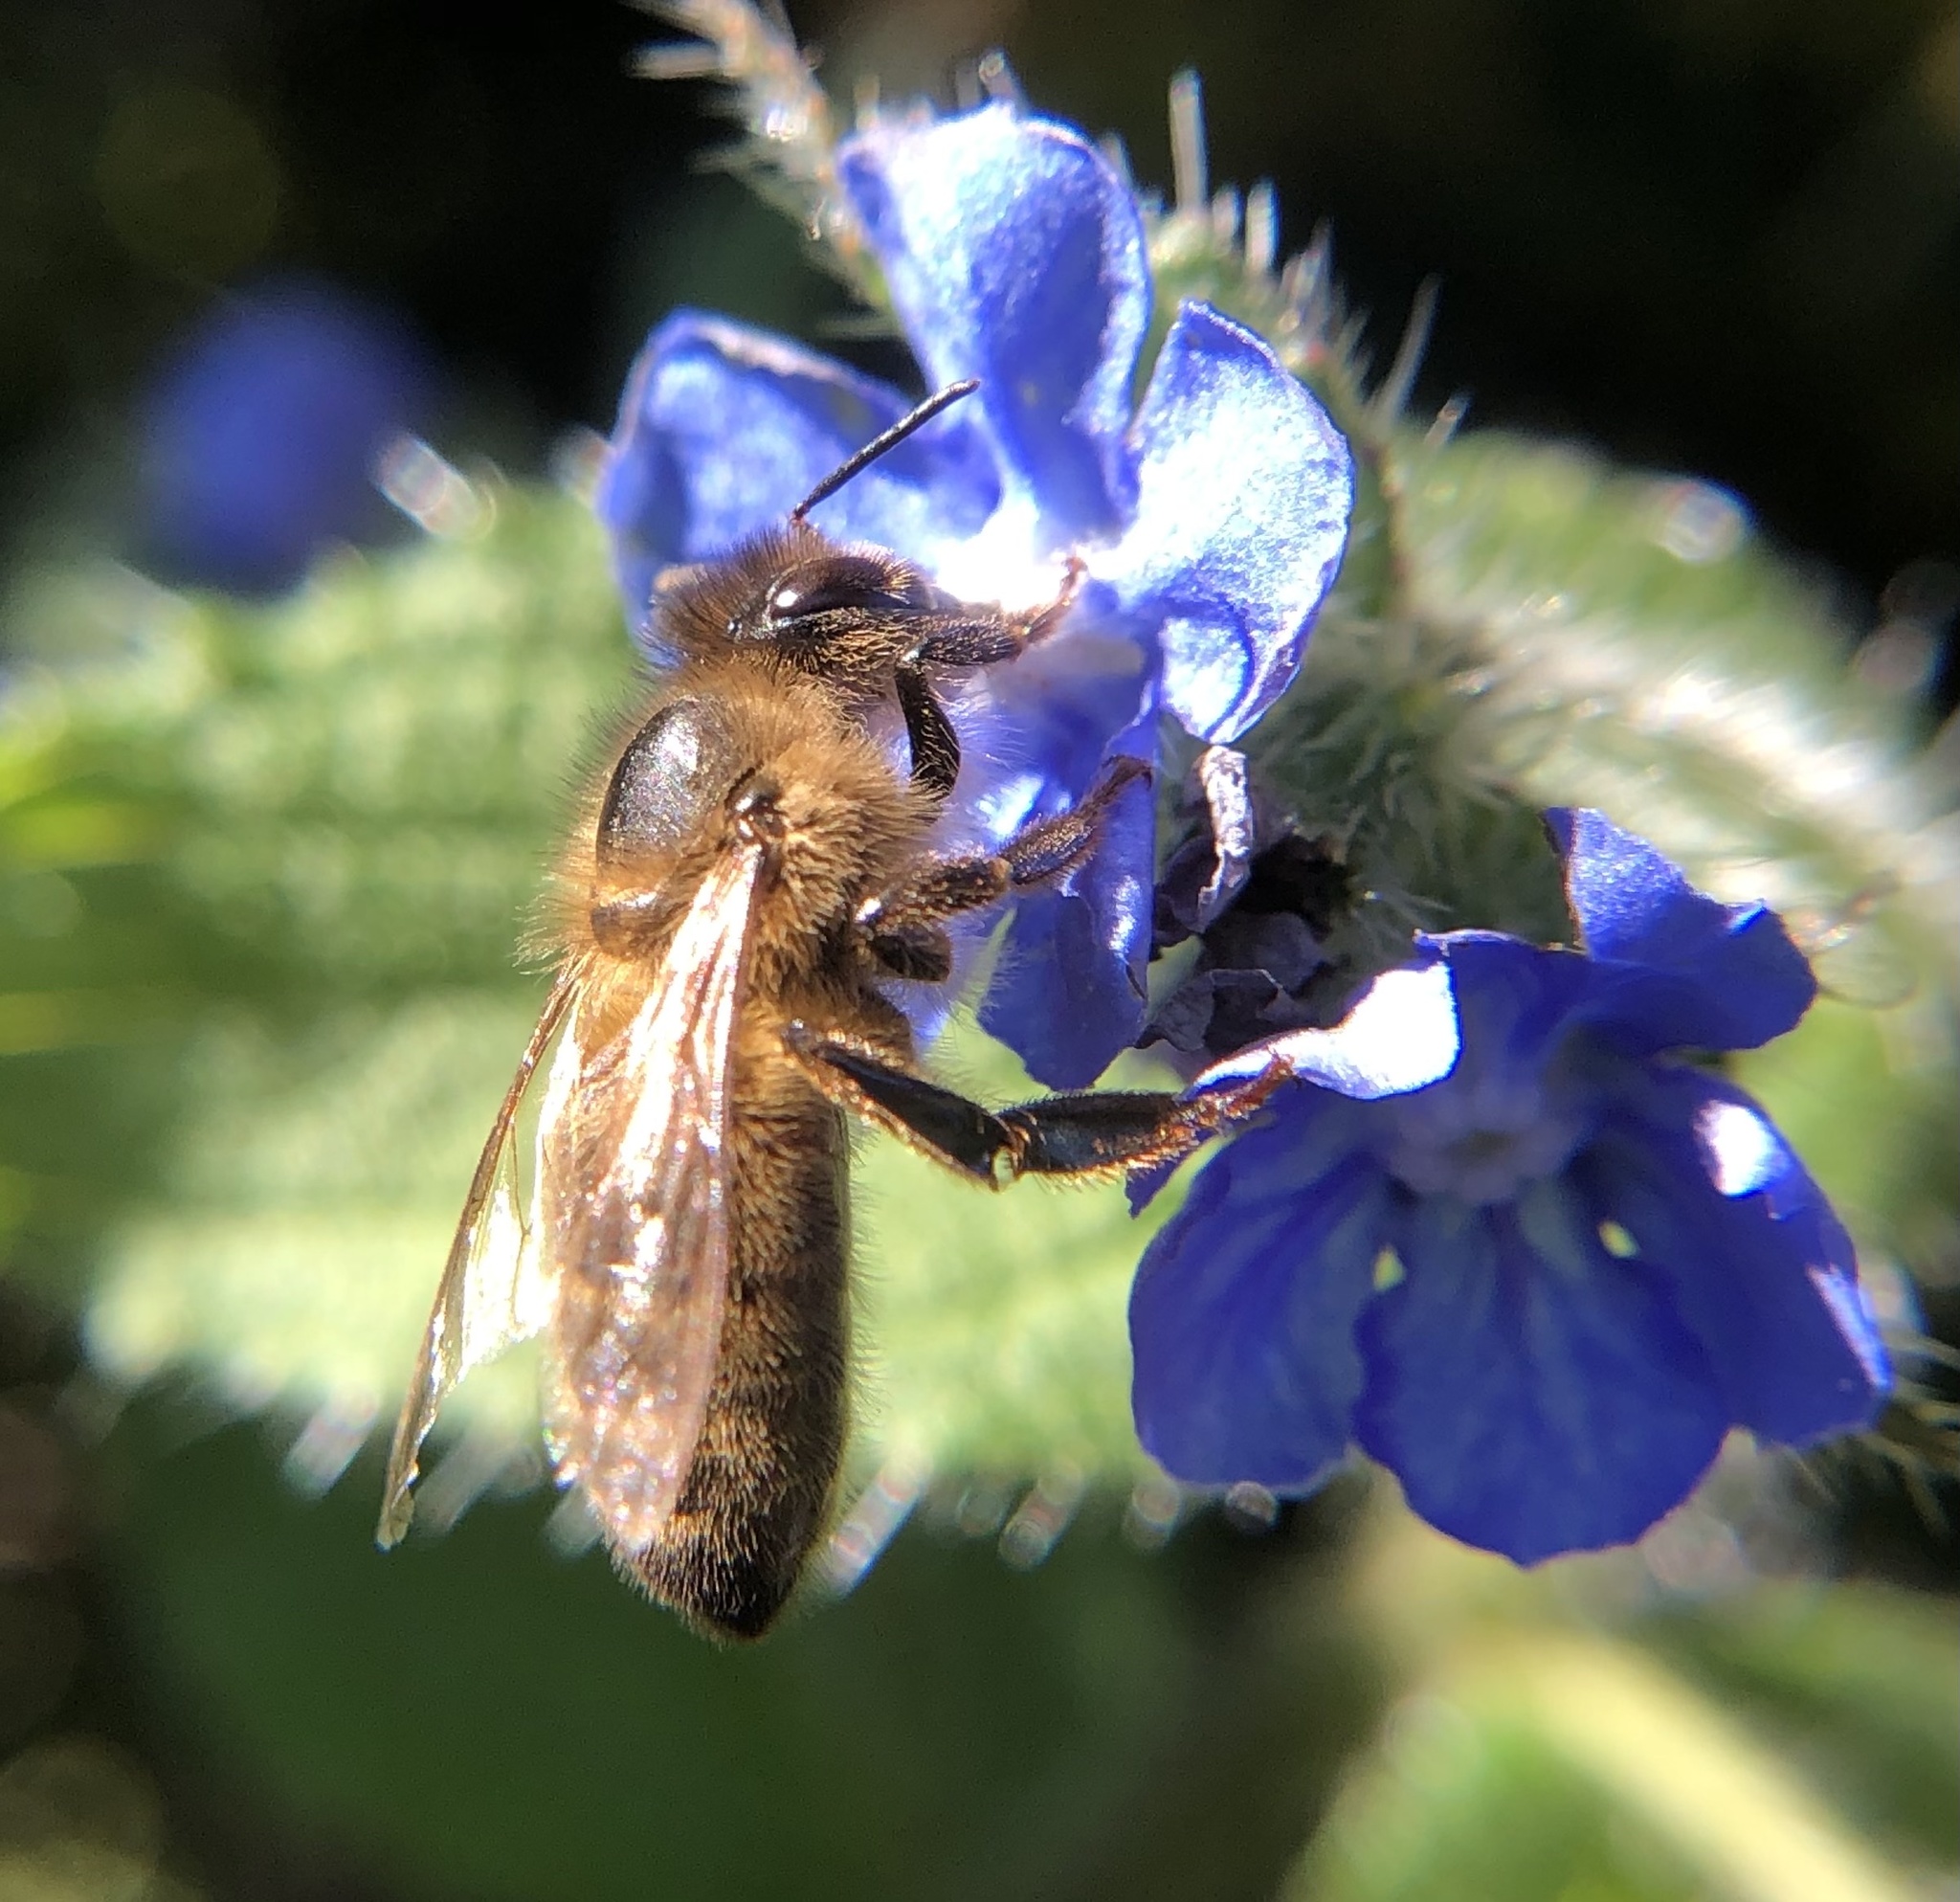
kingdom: Animalia
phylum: Arthropoda
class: Insecta
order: Hymenoptera
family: Apidae
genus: Apis
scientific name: Apis mellifera
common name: Honey bee
